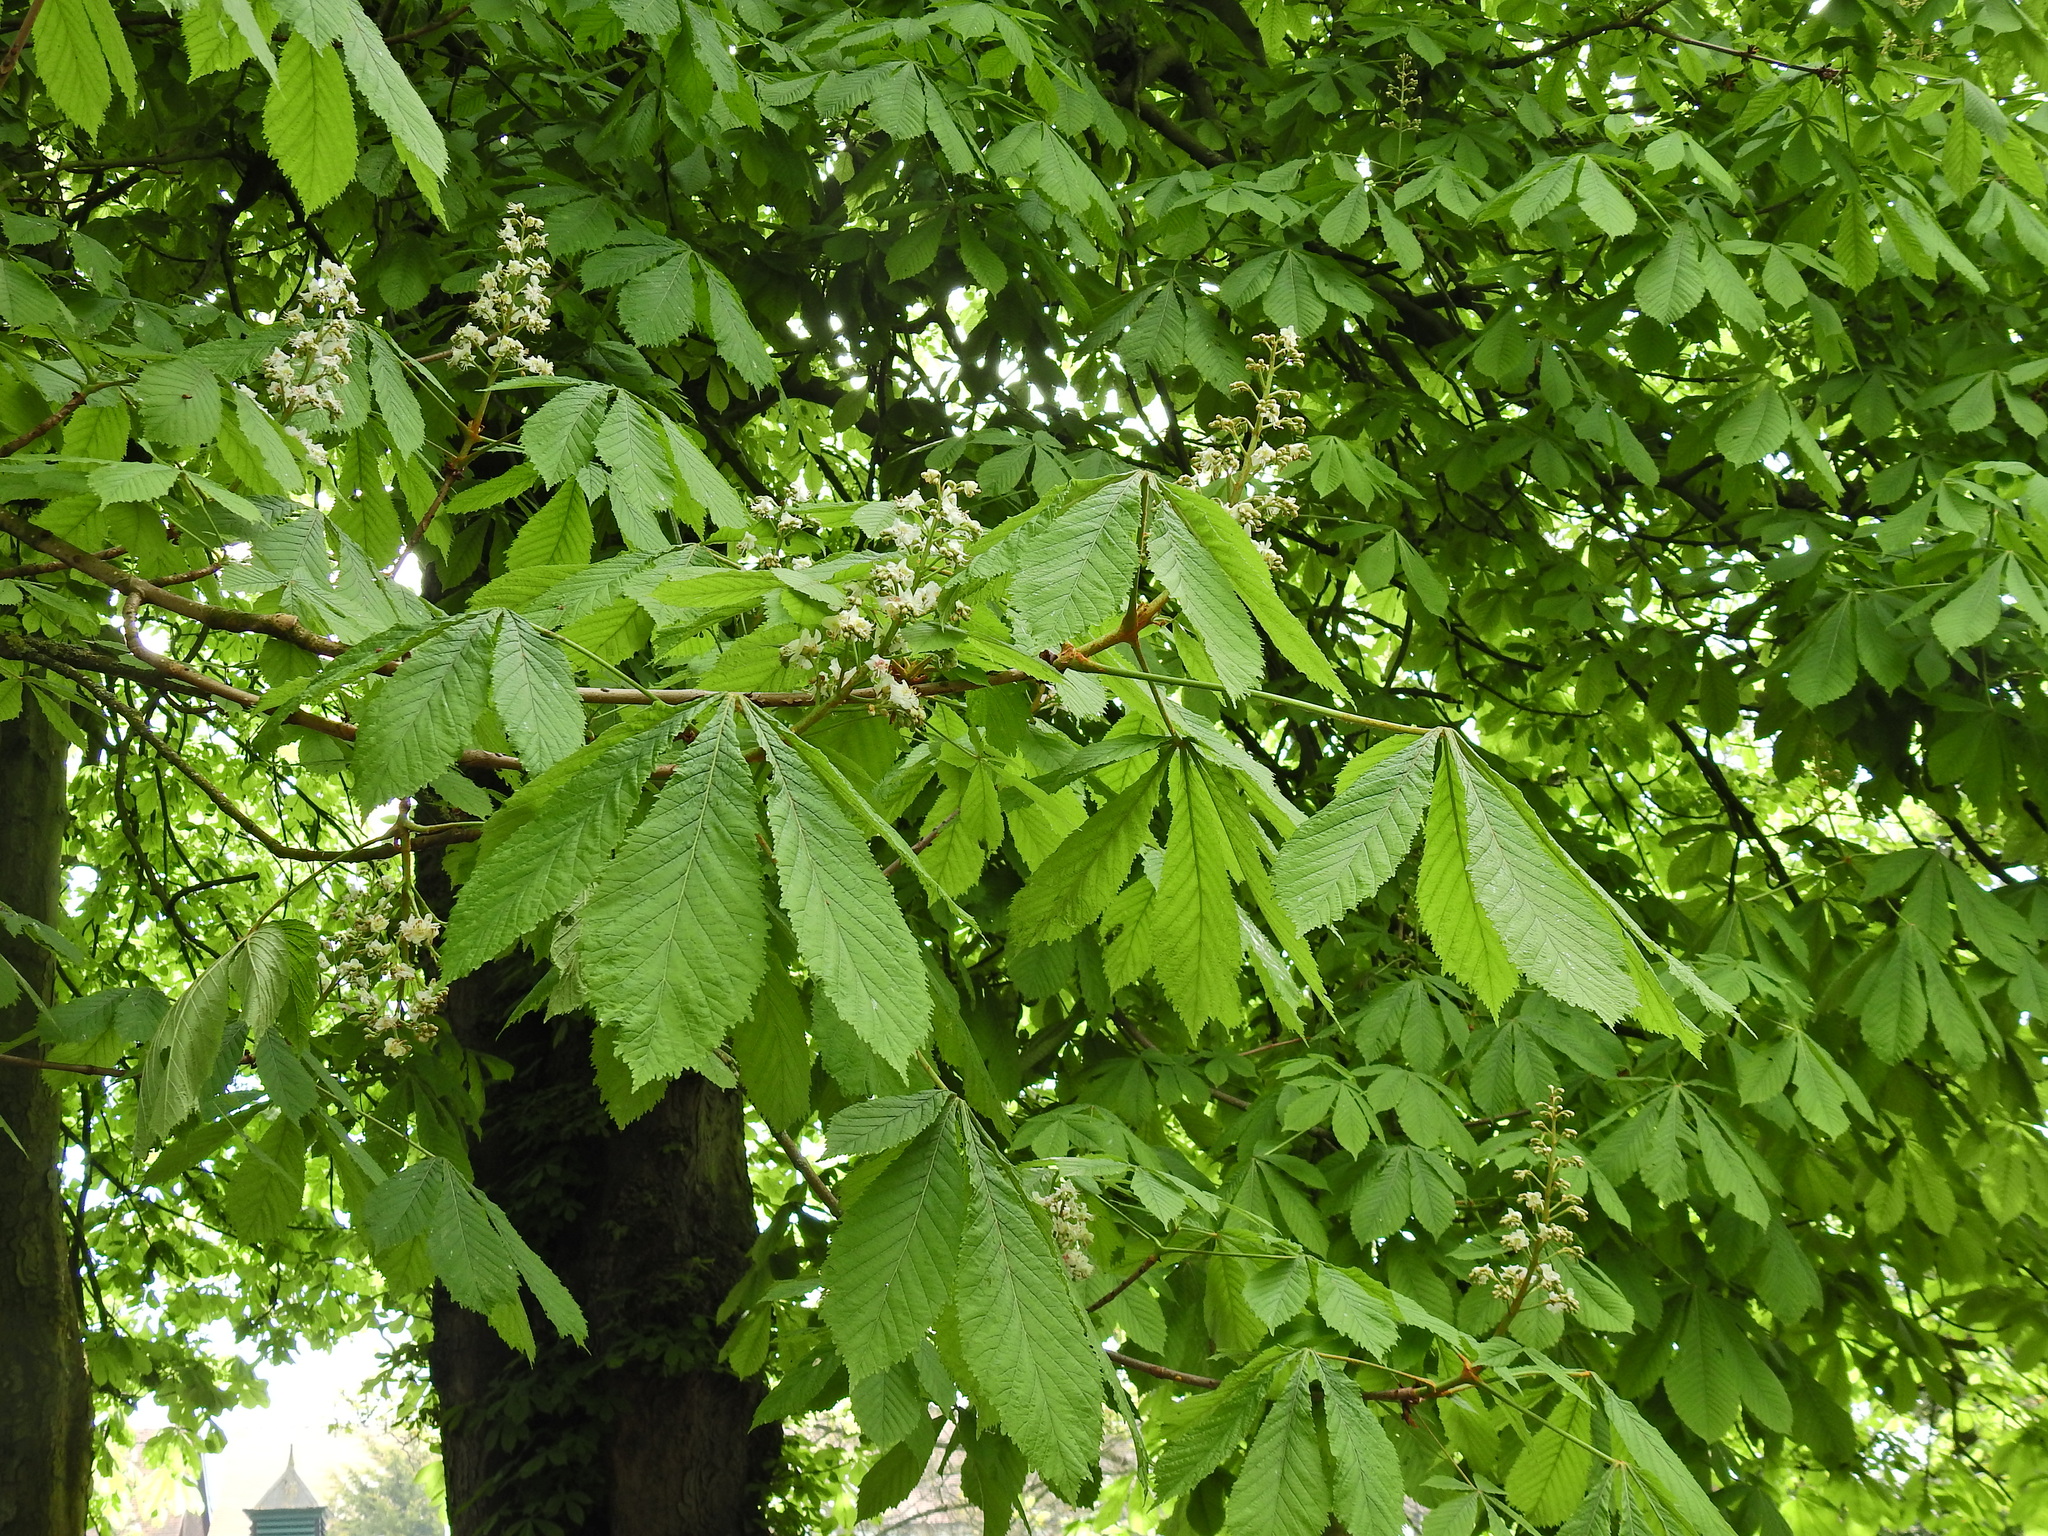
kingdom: Plantae
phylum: Tracheophyta
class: Magnoliopsida
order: Sapindales
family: Sapindaceae
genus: Aesculus
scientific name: Aesculus hippocastanum
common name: Horse-chestnut
